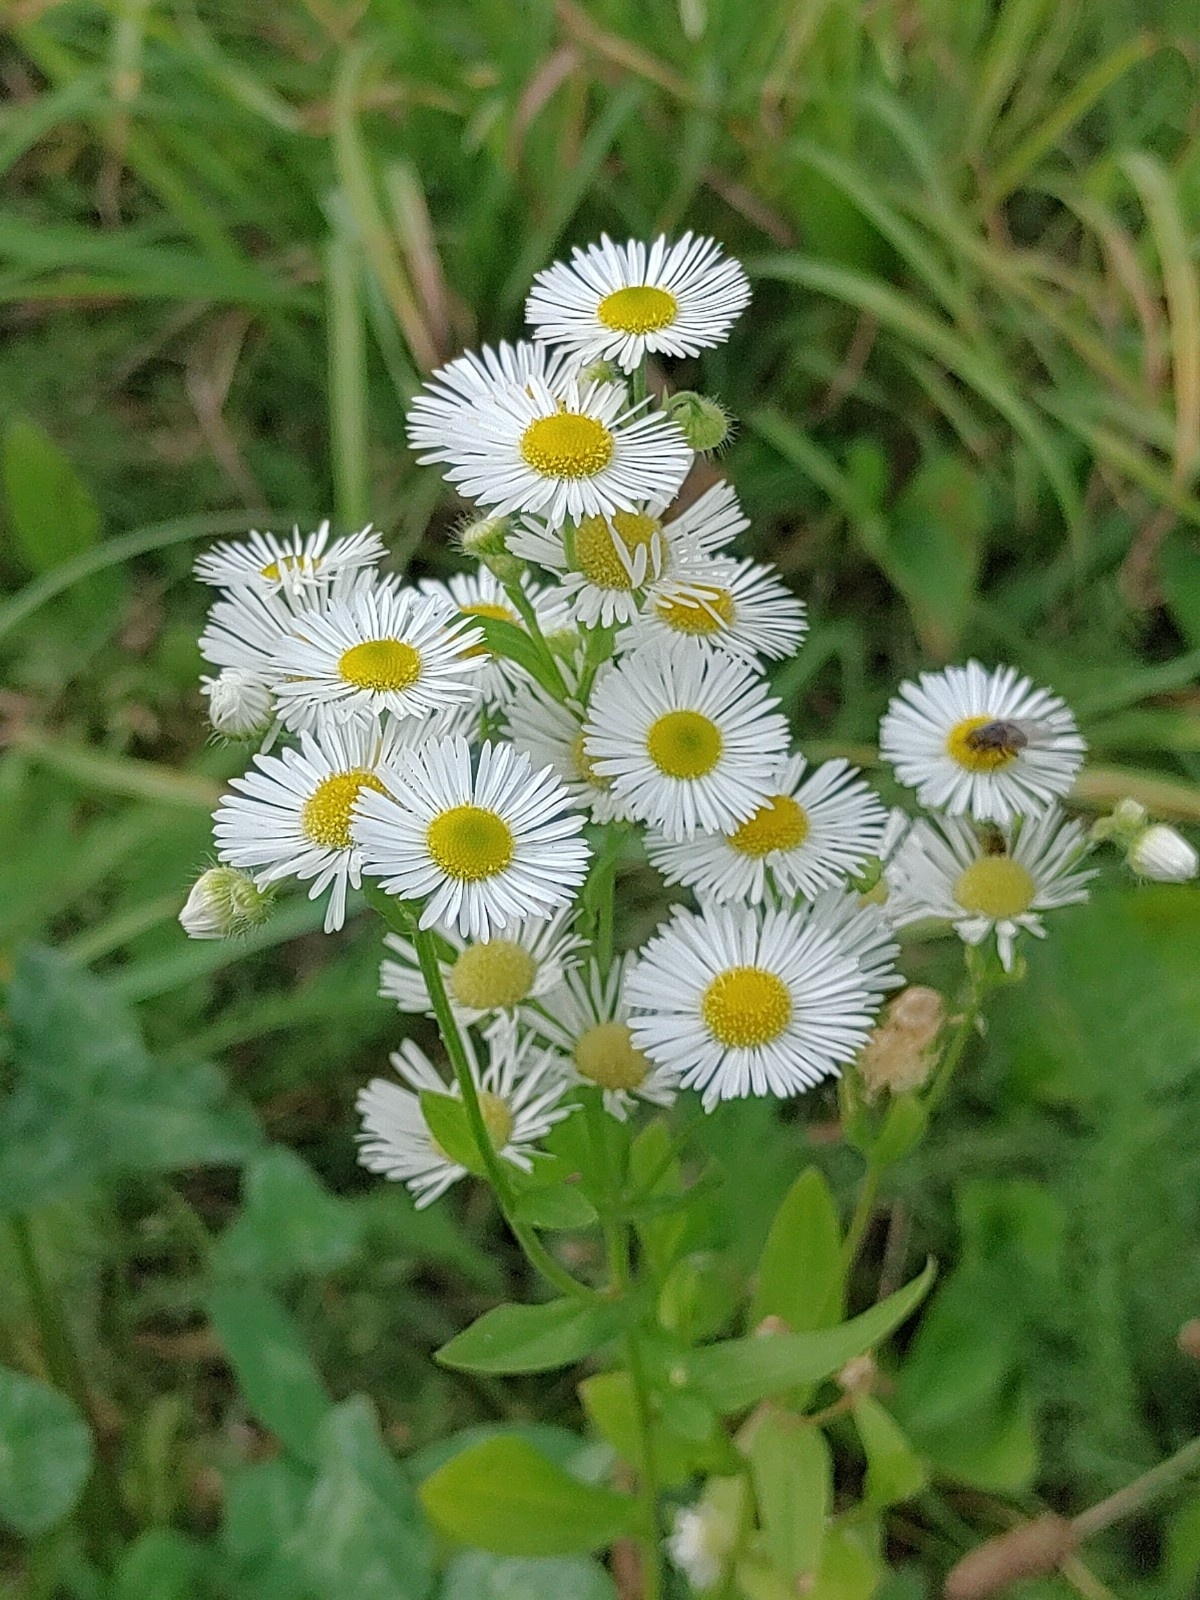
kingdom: Plantae
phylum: Tracheophyta
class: Magnoliopsida
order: Asterales
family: Asteraceae
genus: Erigeron
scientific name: Erigeron annuus
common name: Tall fleabane
